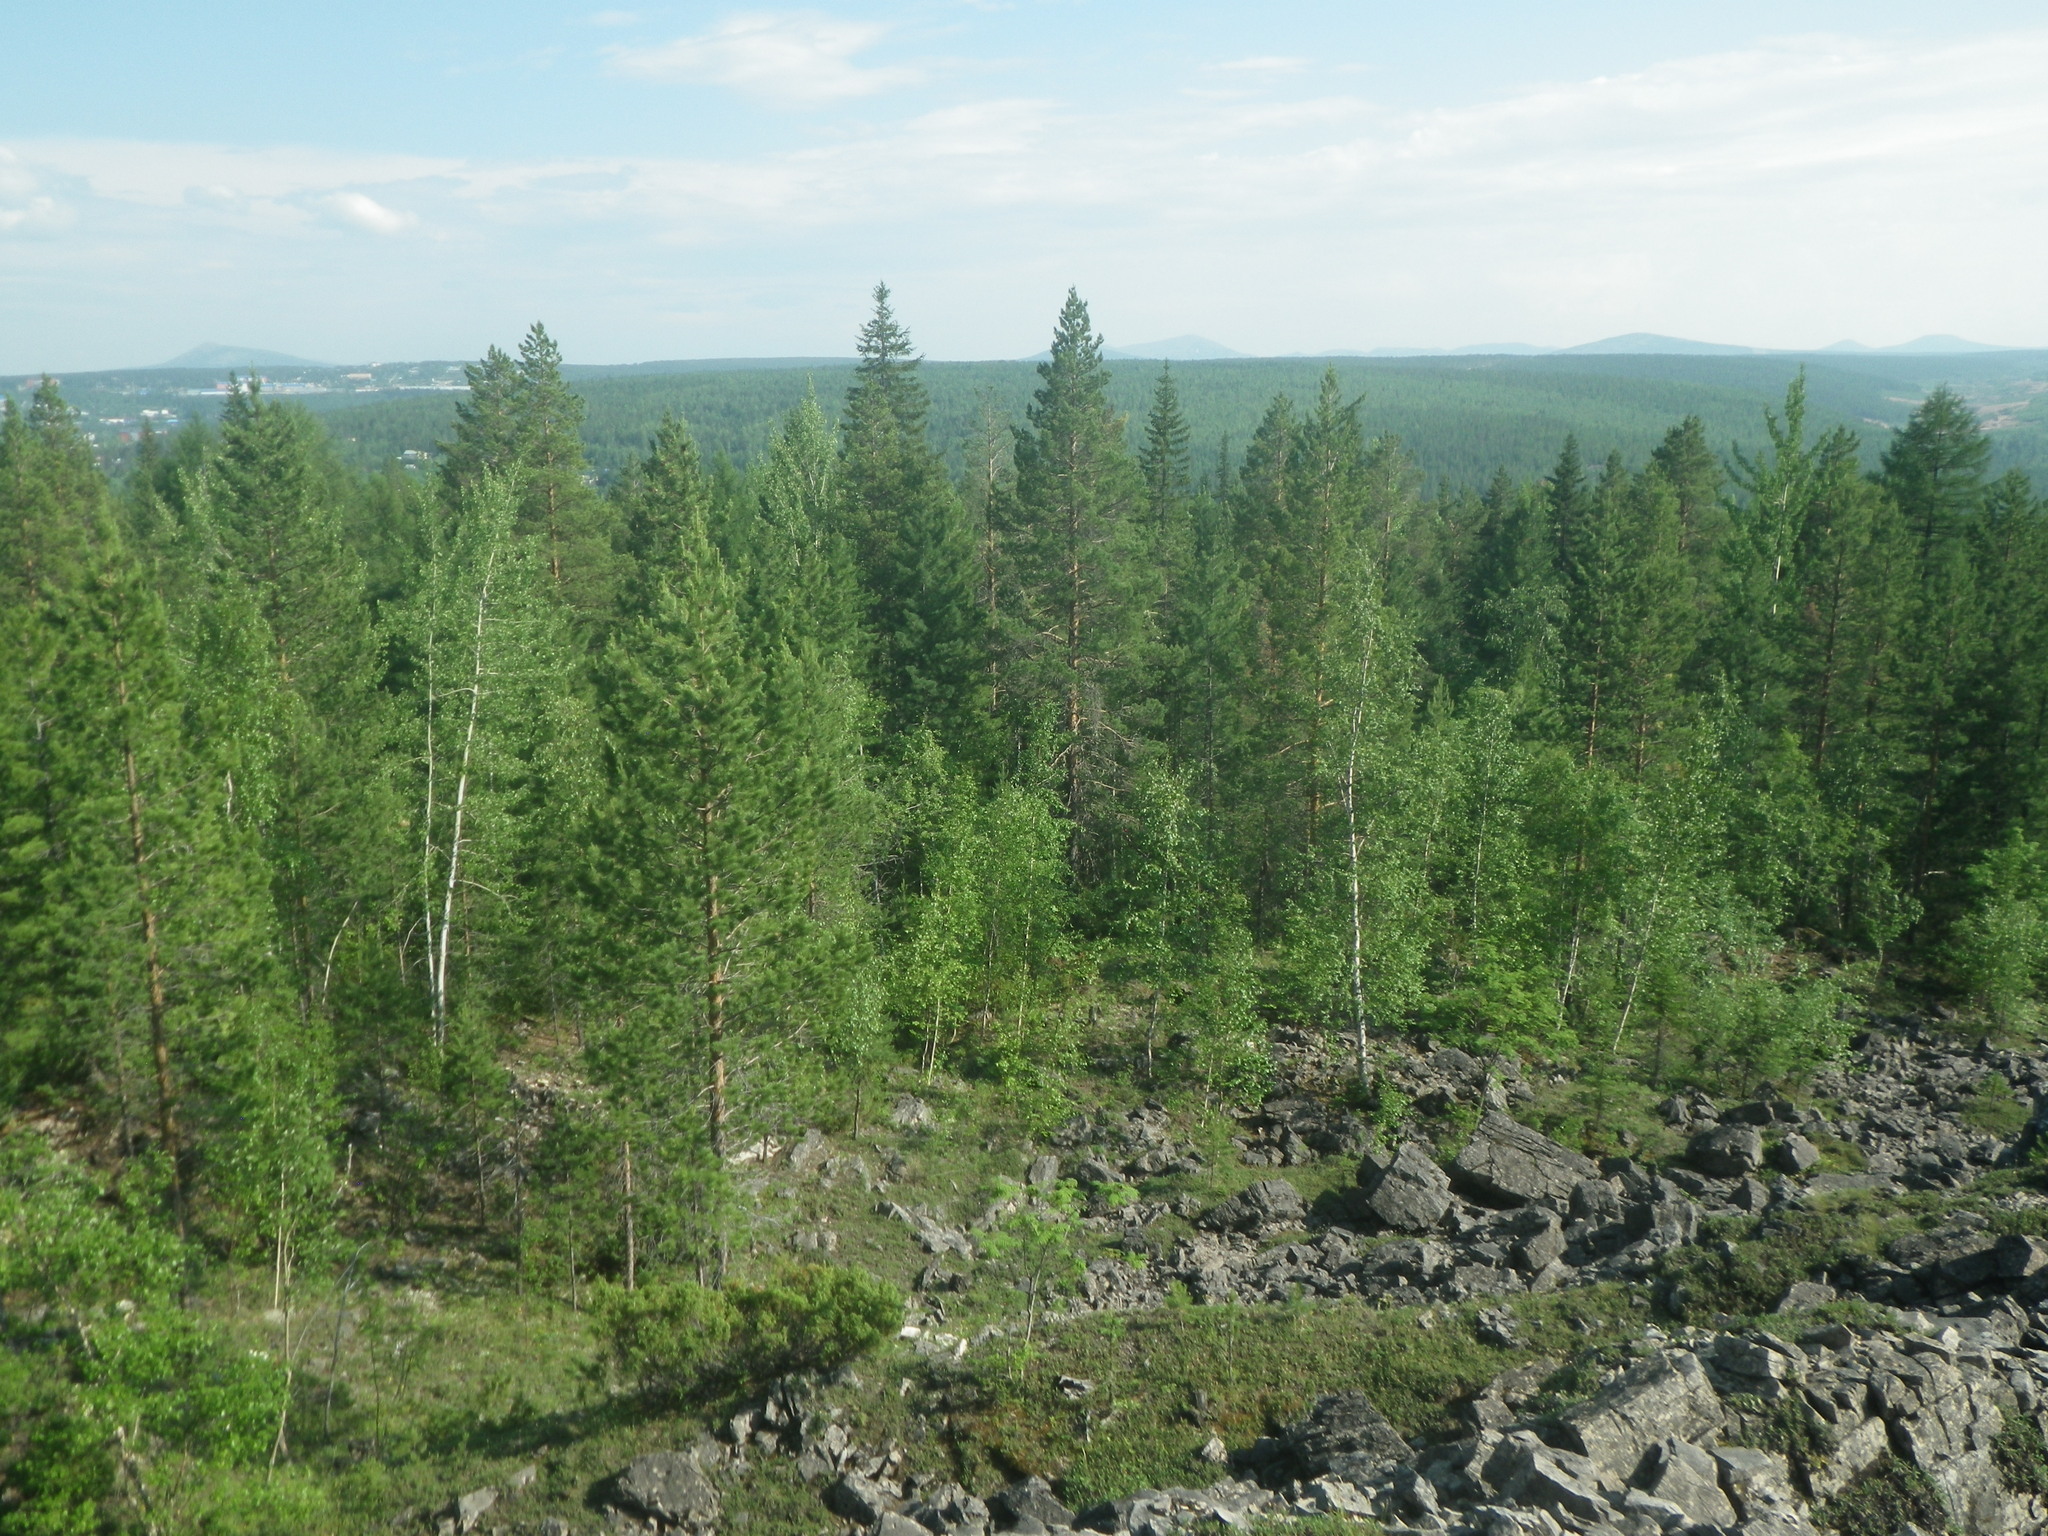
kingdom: Plantae
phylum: Tracheophyta
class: Pinopsida
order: Pinales
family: Pinaceae
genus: Pinus
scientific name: Pinus sylvestris
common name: Scots pine
